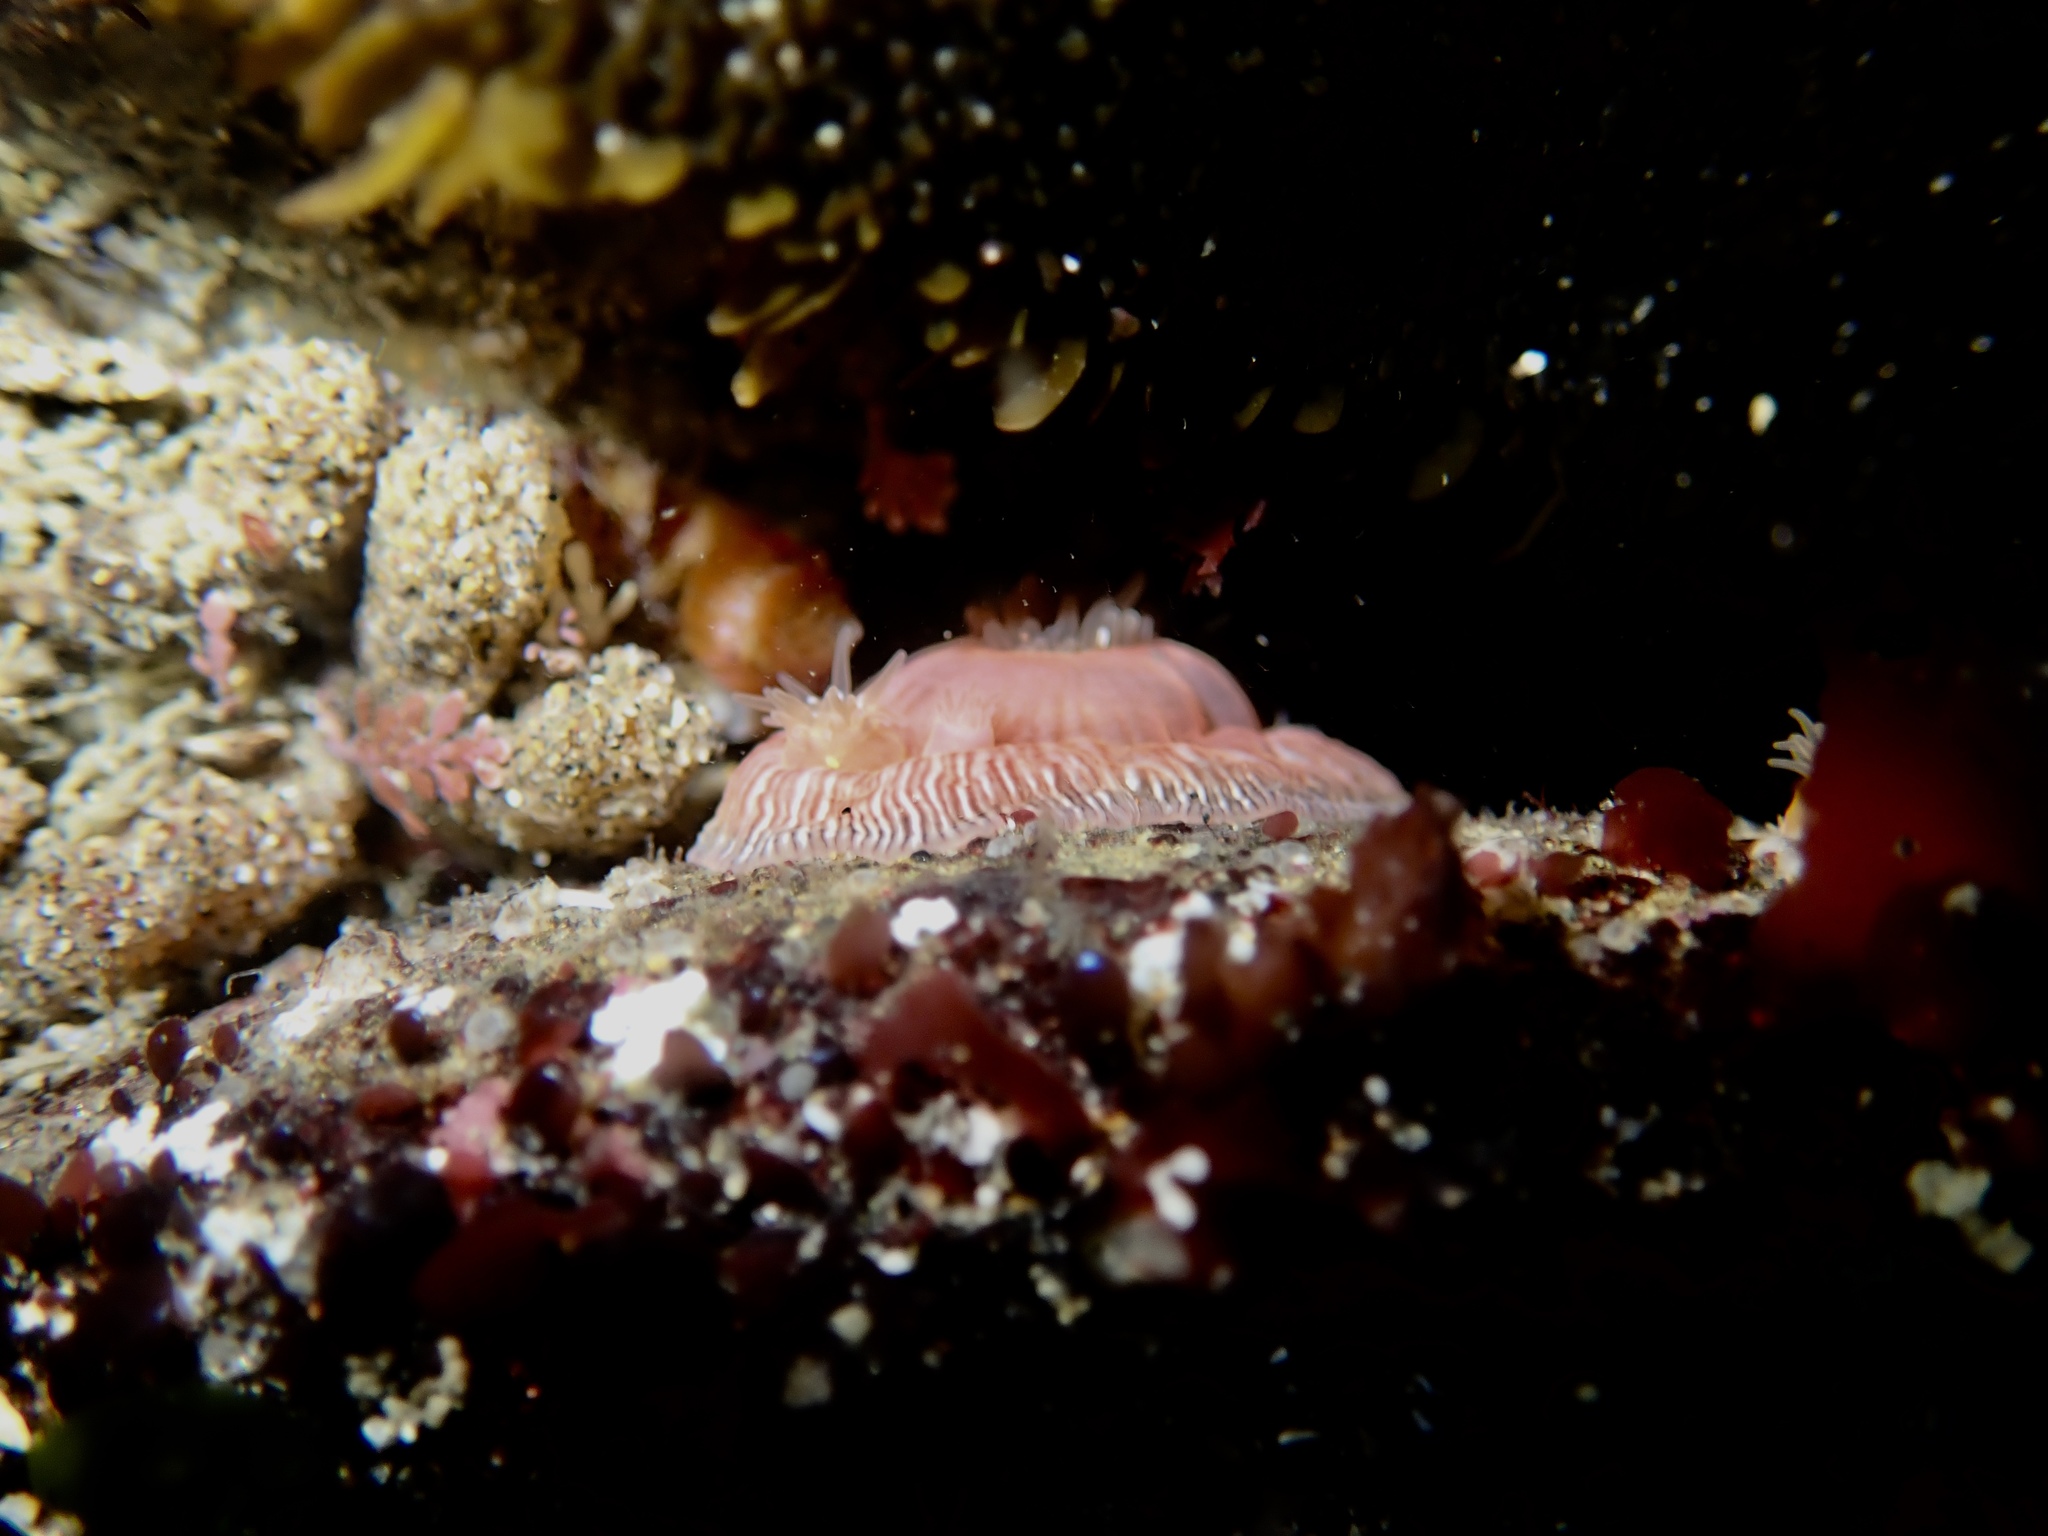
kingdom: Animalia
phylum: Cnidaria
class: Anthozoa
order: Actiniaria
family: Actiniidae
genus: Epiactis
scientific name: Epiactis prolifera
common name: Brooding anemone
